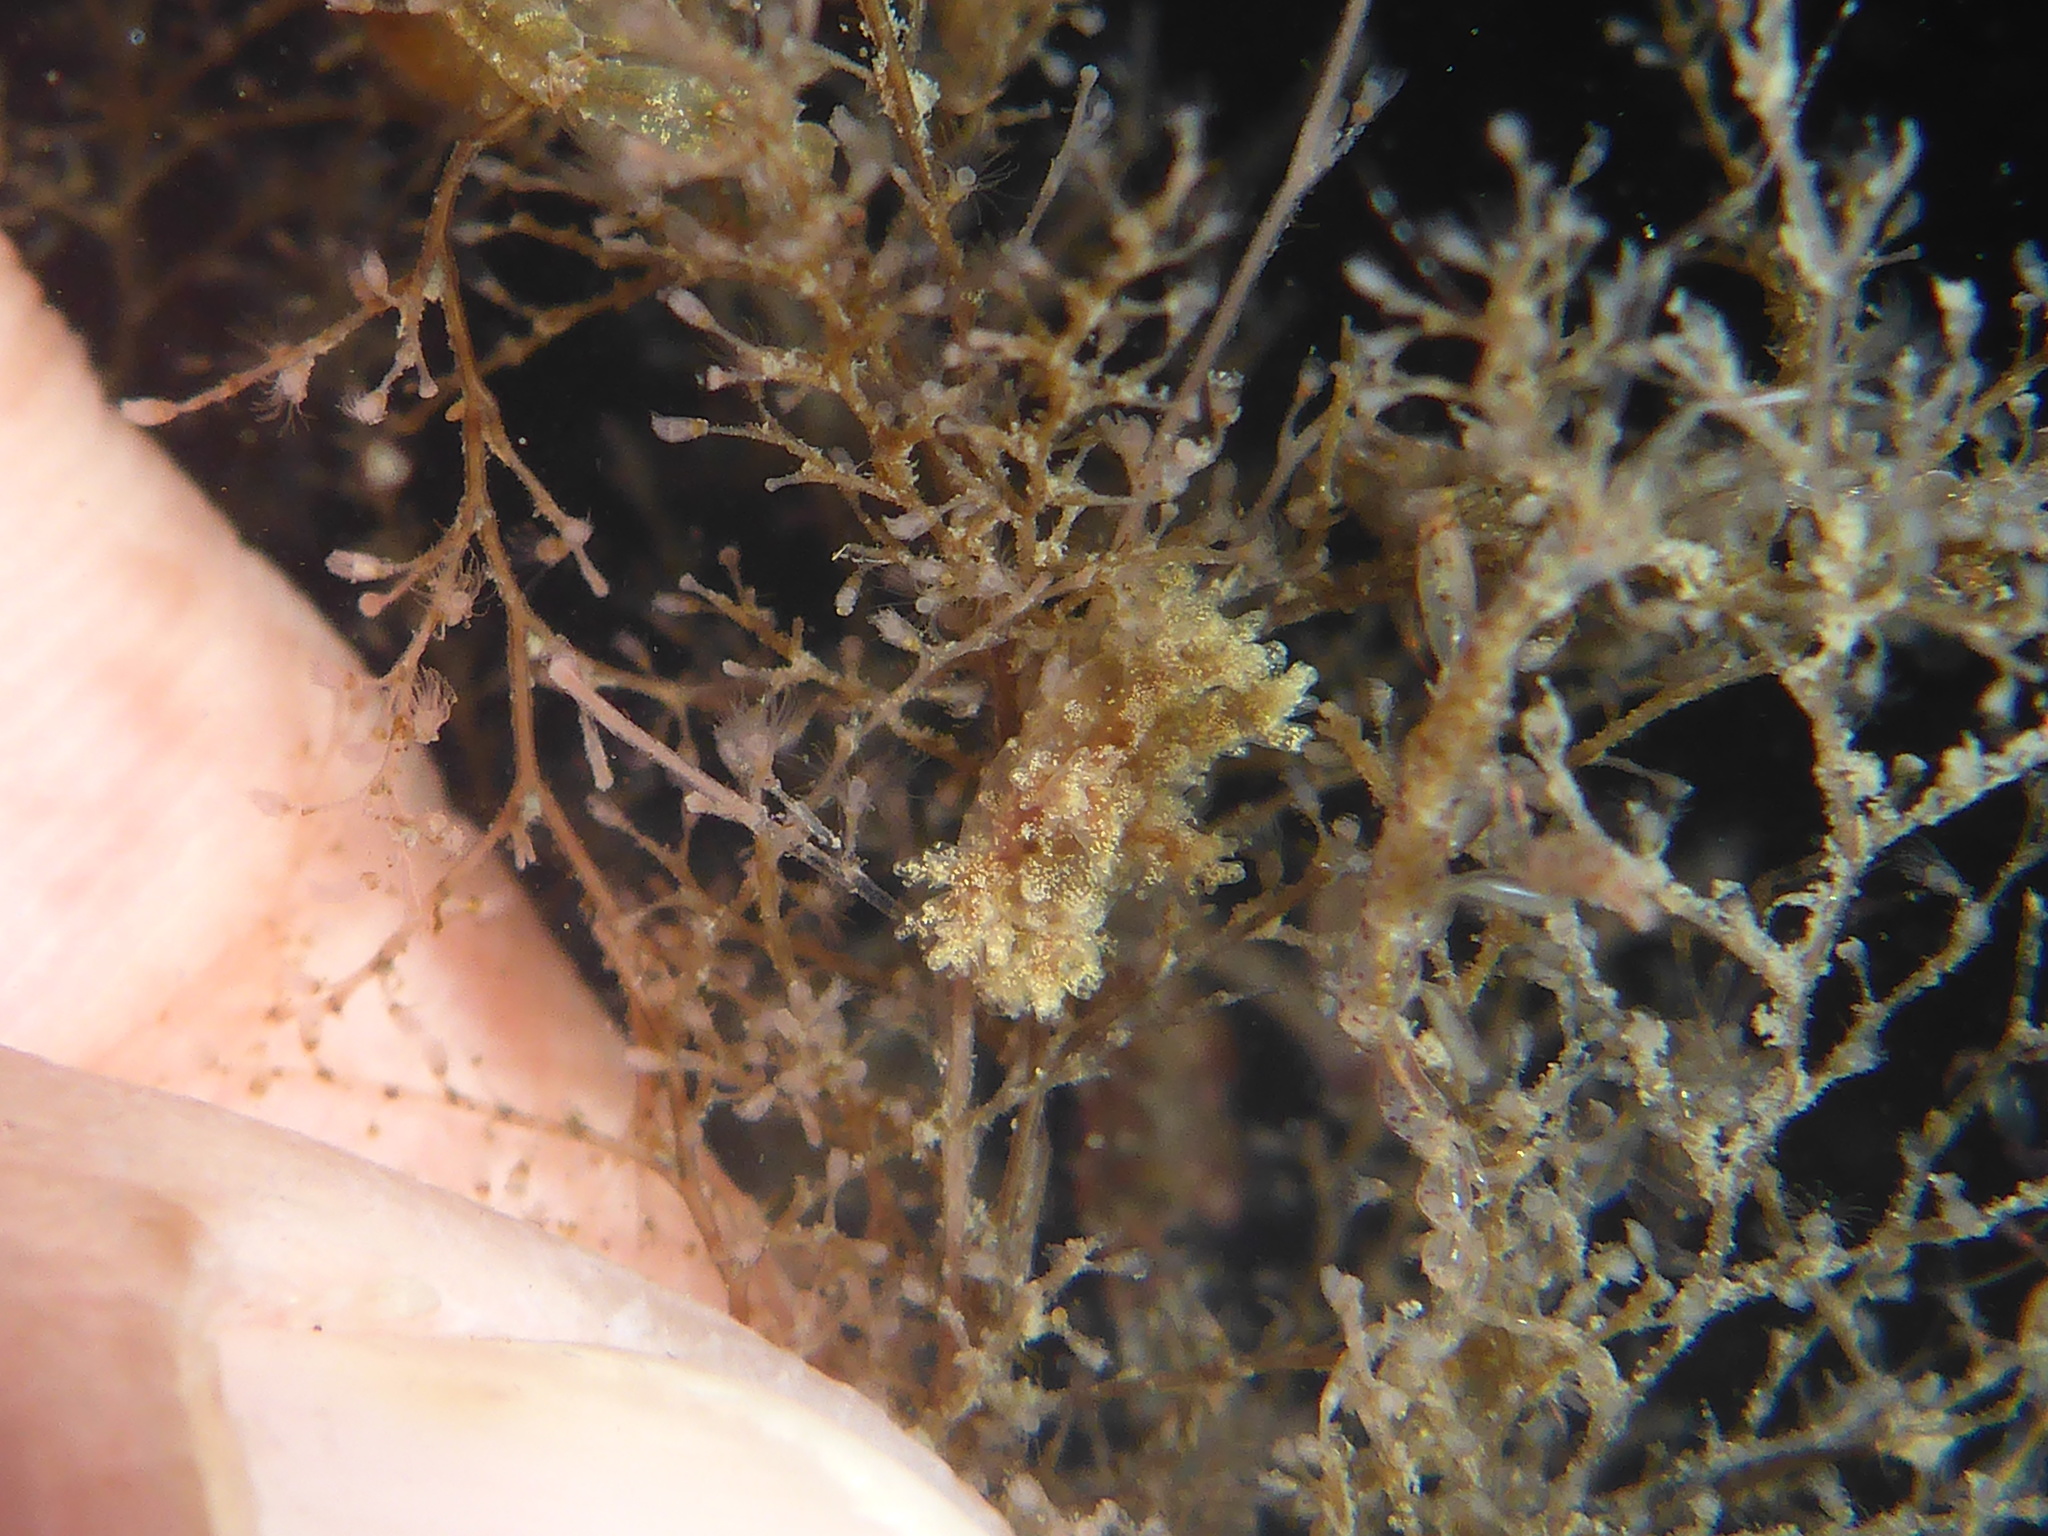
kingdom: Animalia
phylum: Mollusca
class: Gastropoda
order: Nudibranchia
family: Dendronotidae
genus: Dendronotus
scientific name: Dendronotus venustus
